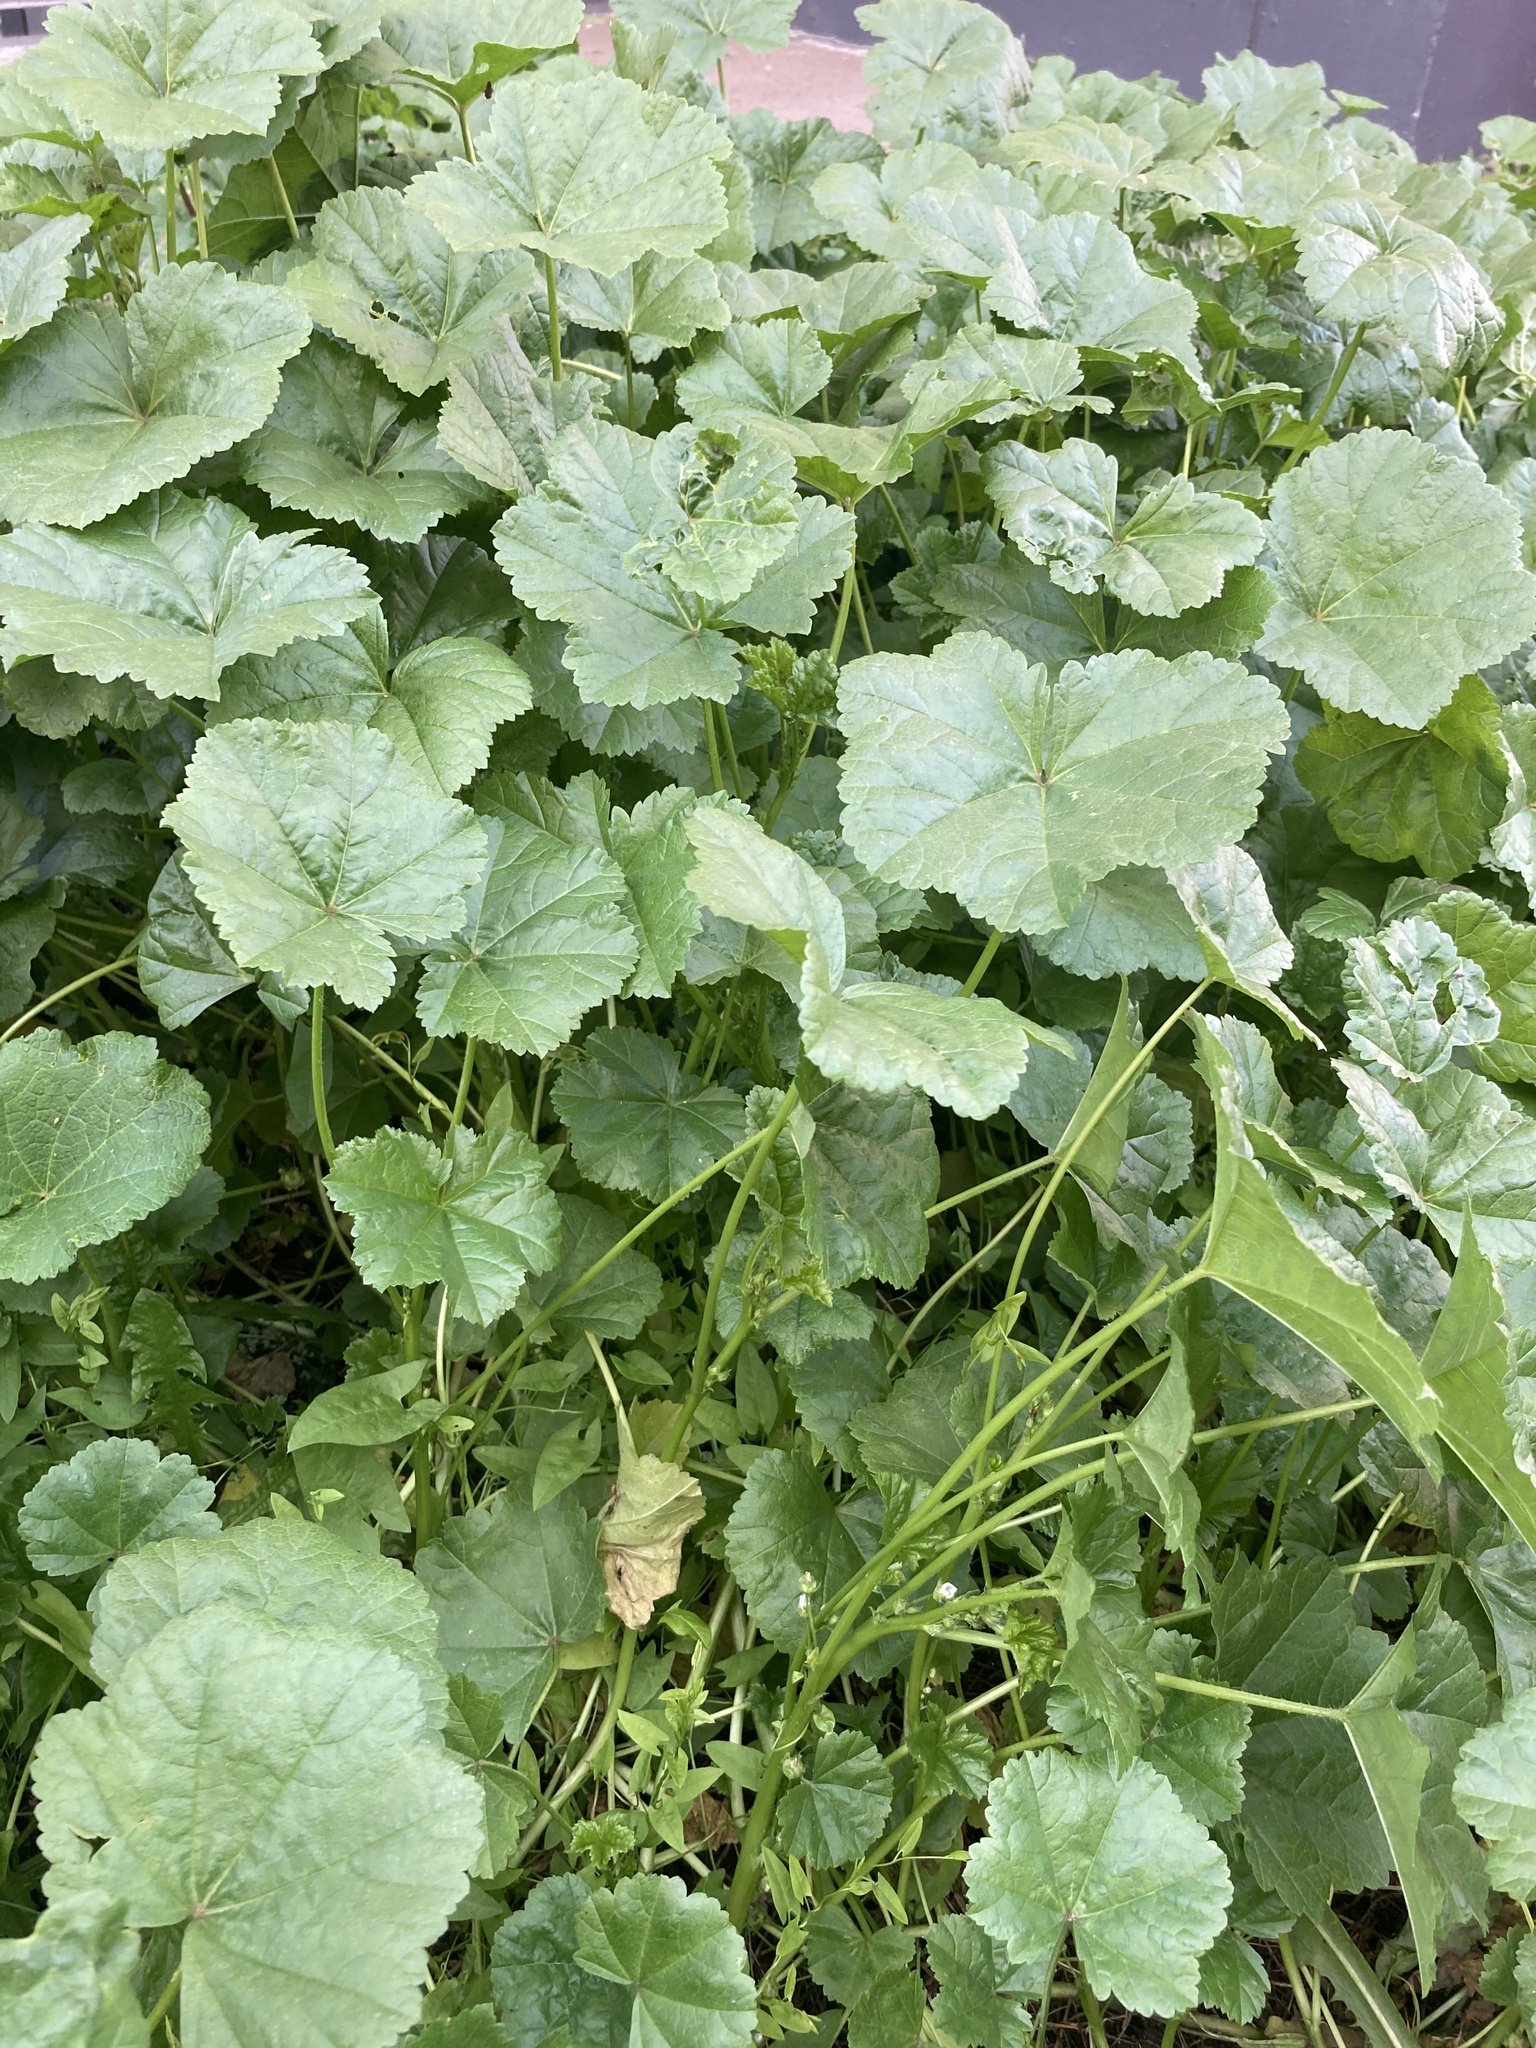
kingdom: Plantae
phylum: Tracheophyta
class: Magnoliopsida
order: Malvales
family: Malvaceae
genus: Malva
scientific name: Malva pusilla
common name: Small mallow
